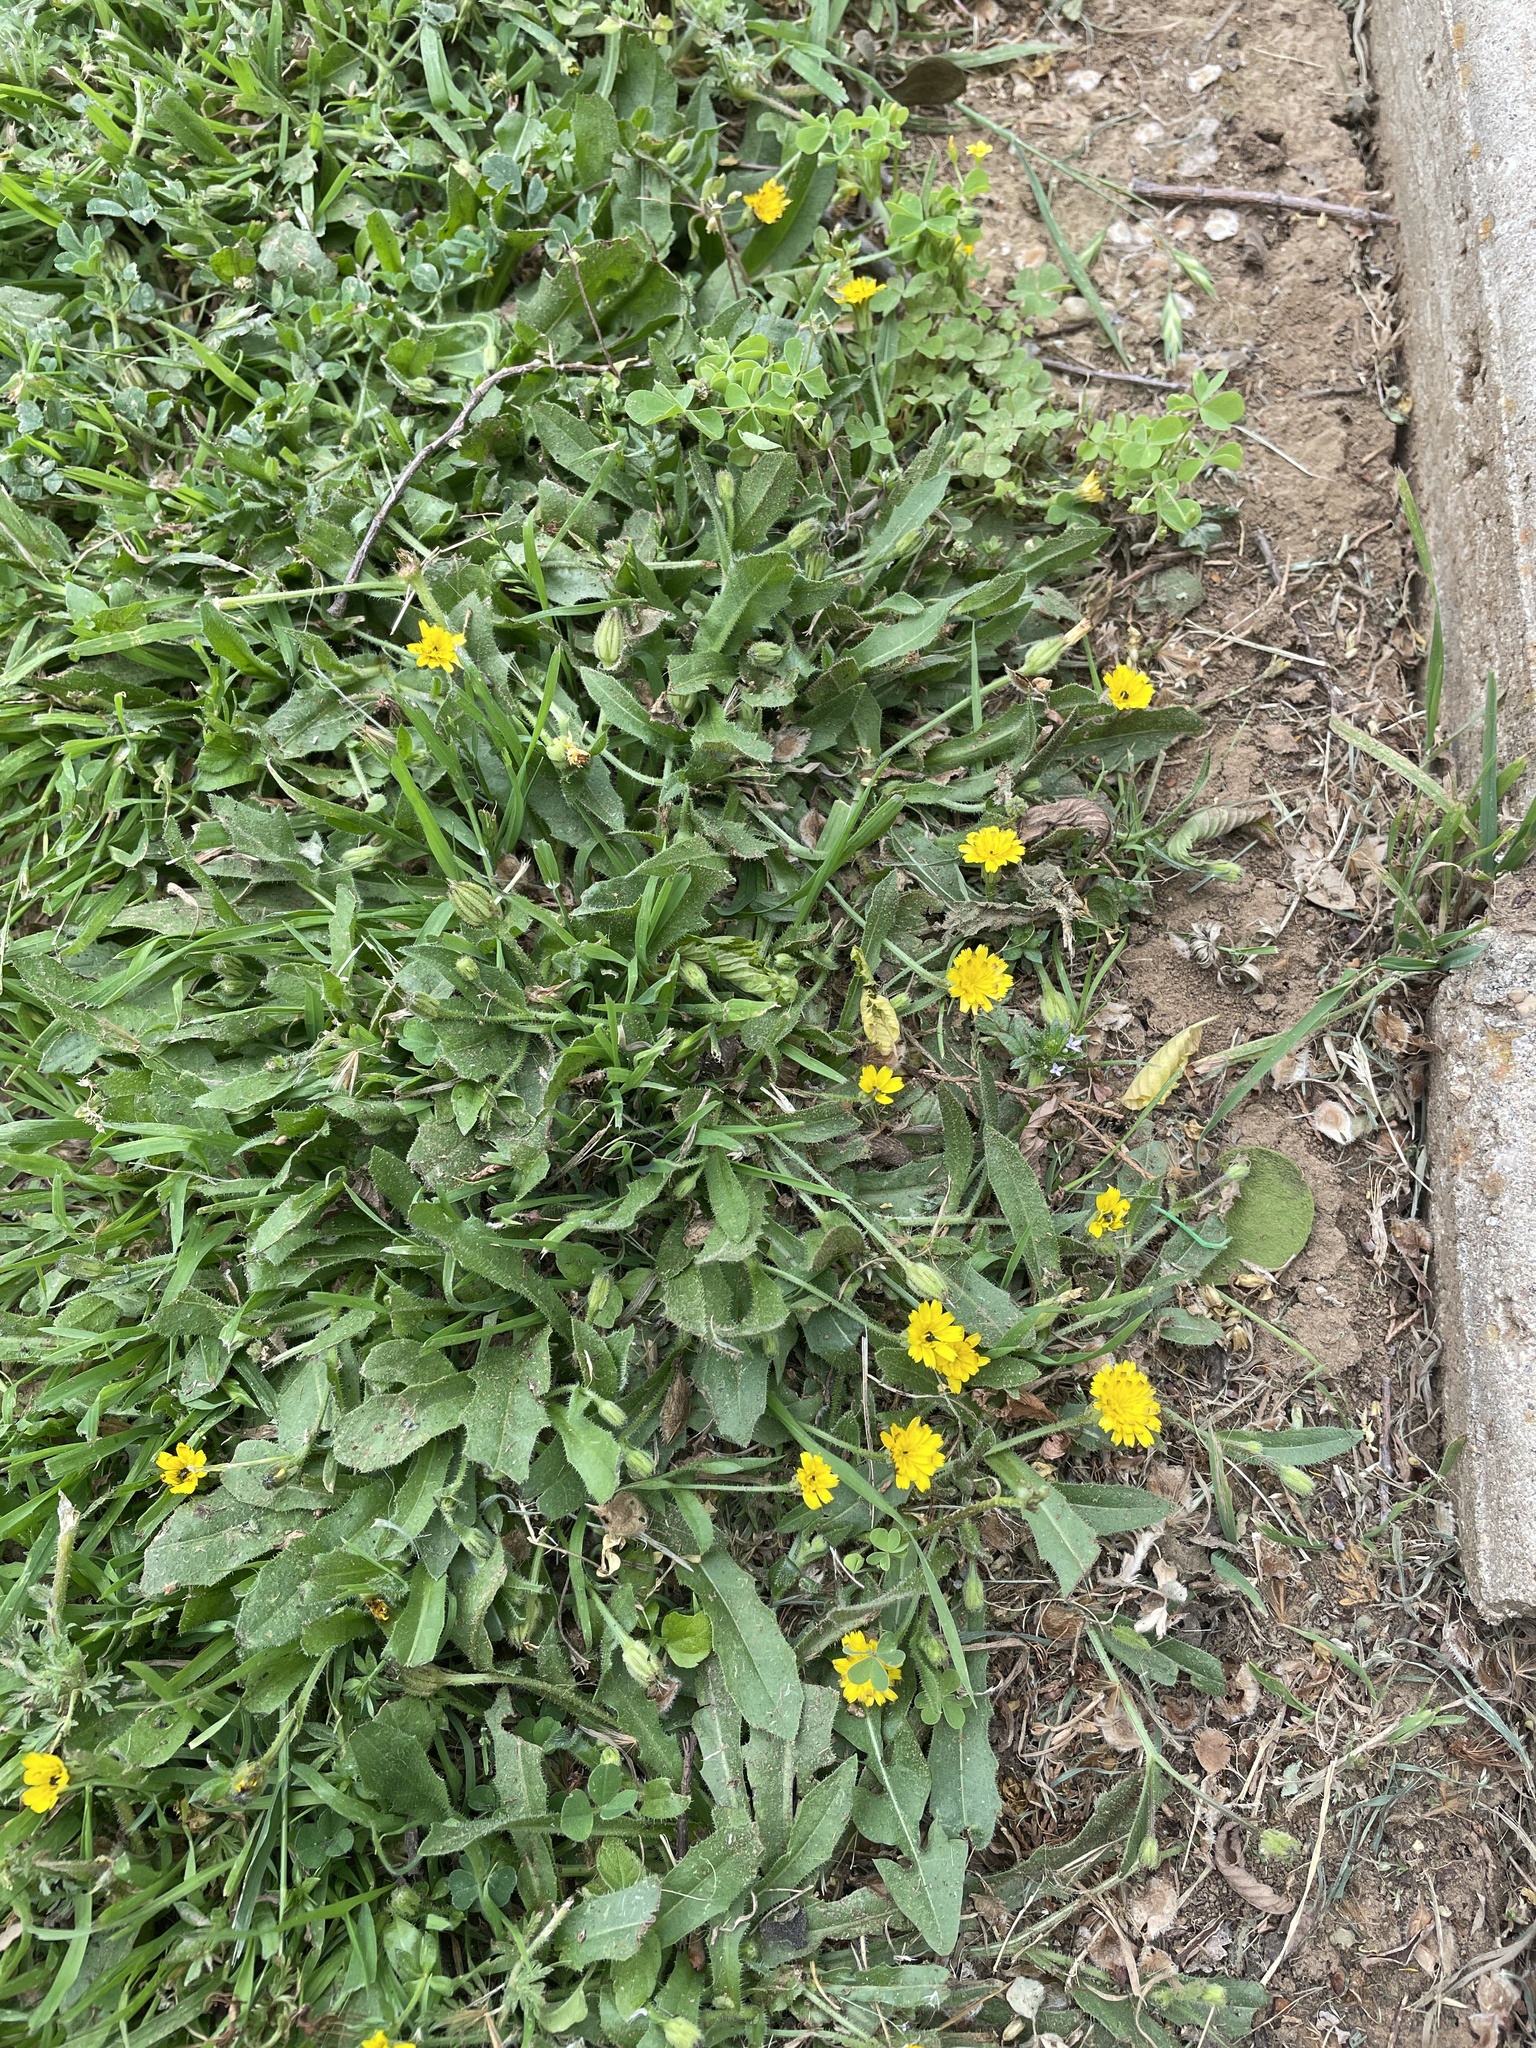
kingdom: Plantae
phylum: Tracheophyta
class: Magnoliopsida
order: Asterales
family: Asteraceae
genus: Hedypnois
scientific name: Hedypnois rhagadioloides
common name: Cretan weed
